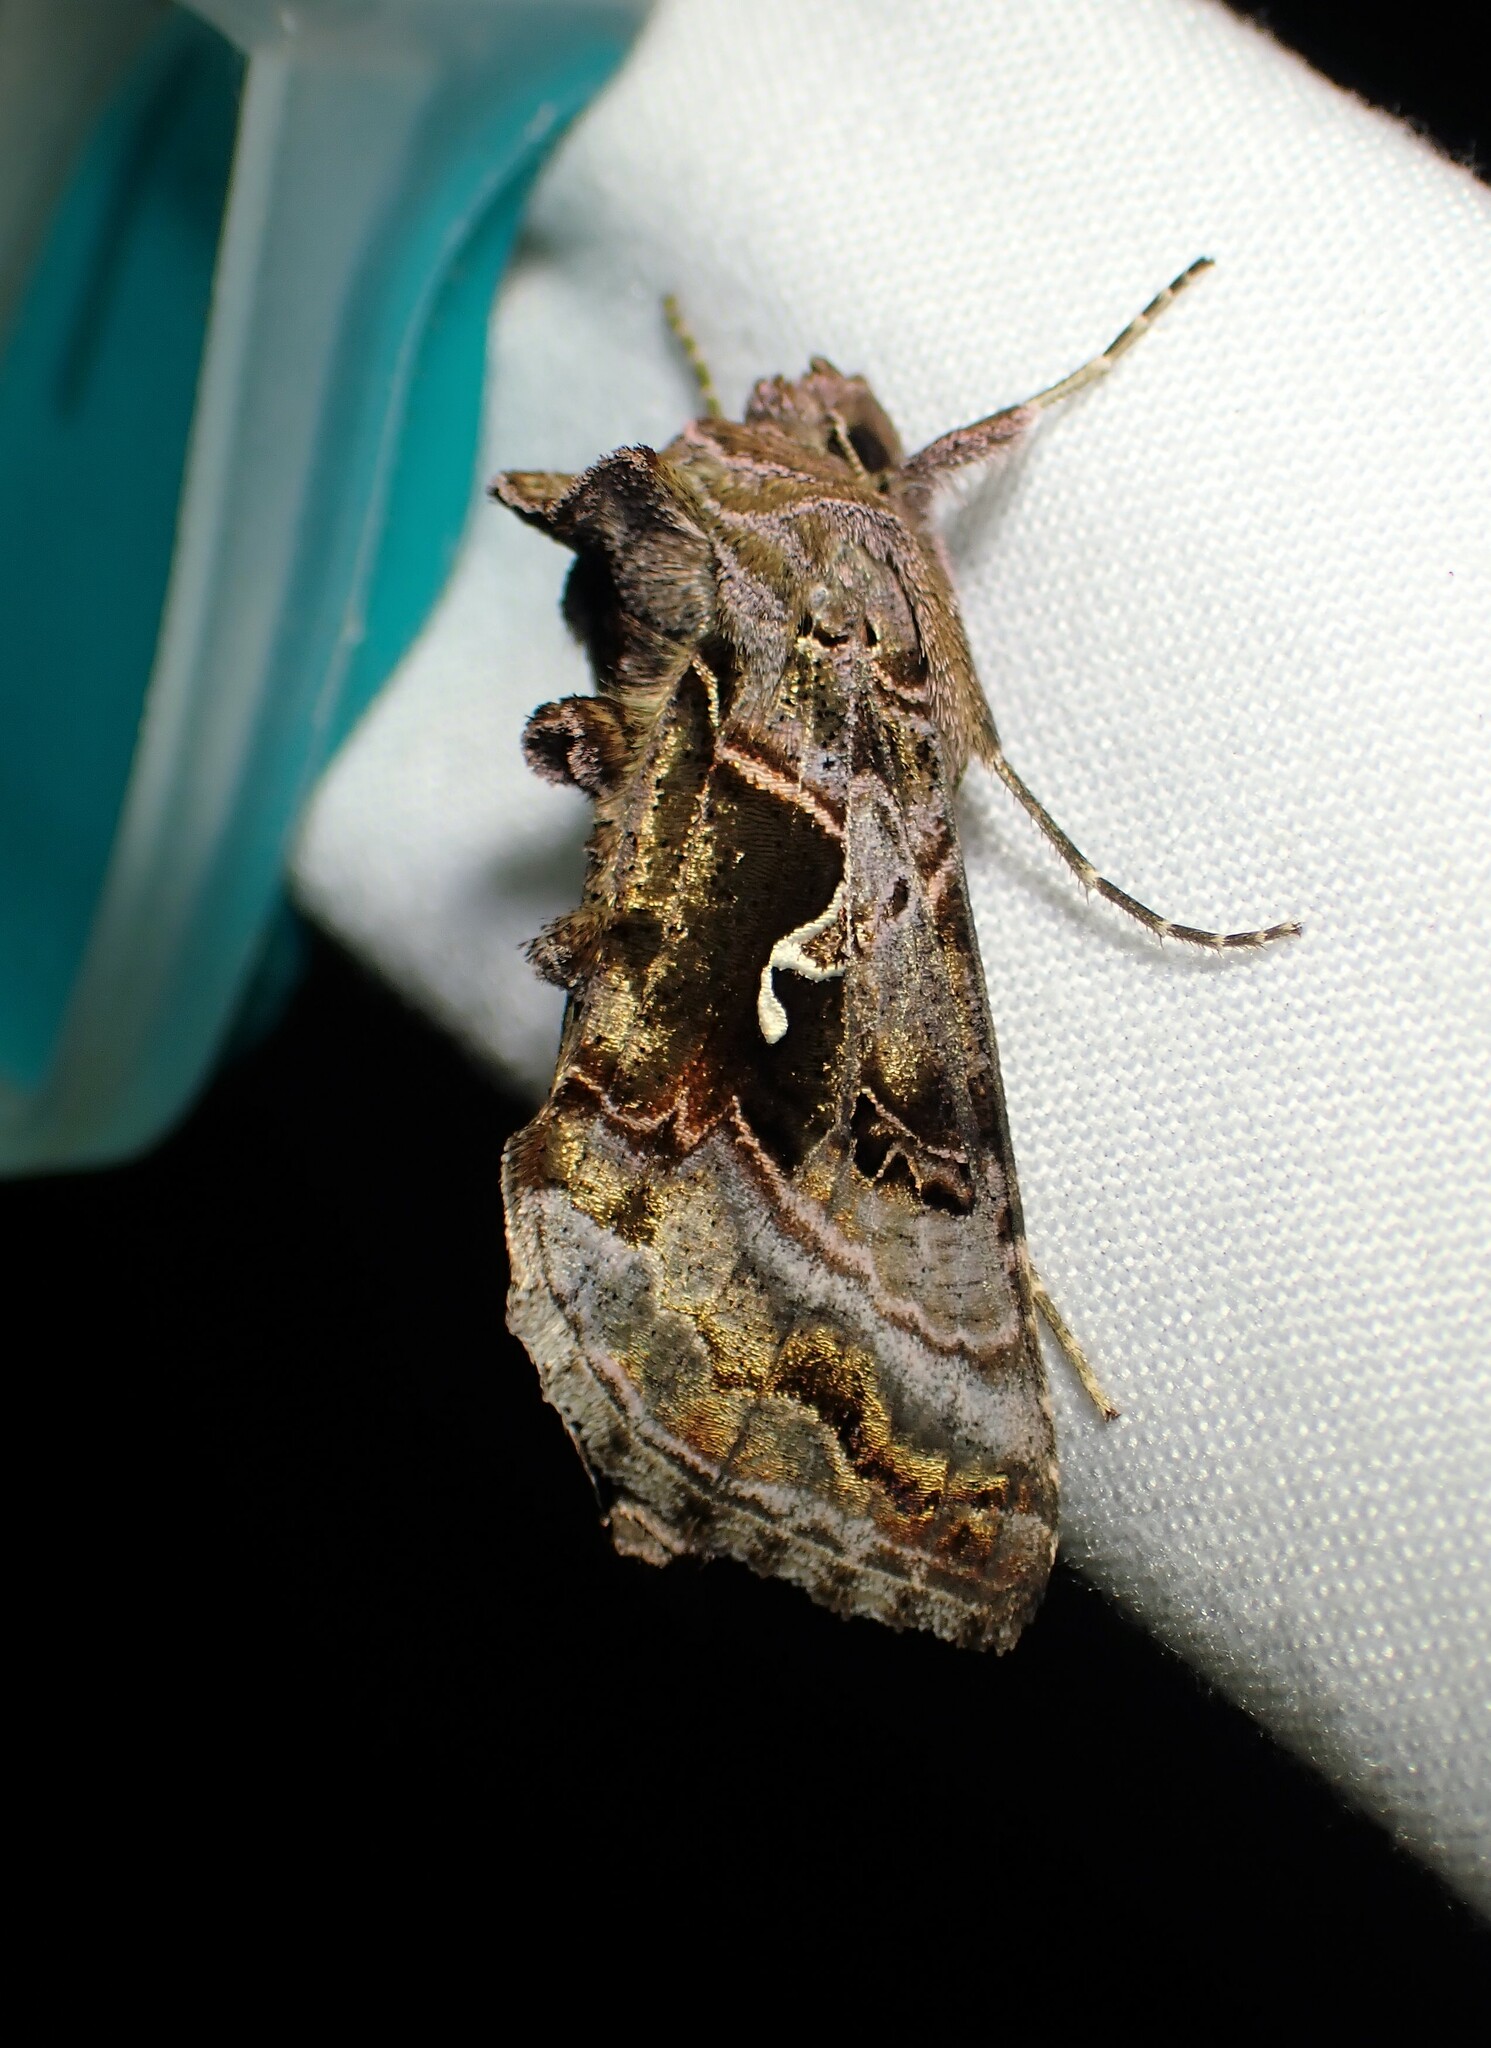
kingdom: Animalia
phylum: Arthropoda
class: Insecta
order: Lepidoptera
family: Noctuidae
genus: Autographa
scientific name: Autographa pseudogamma
